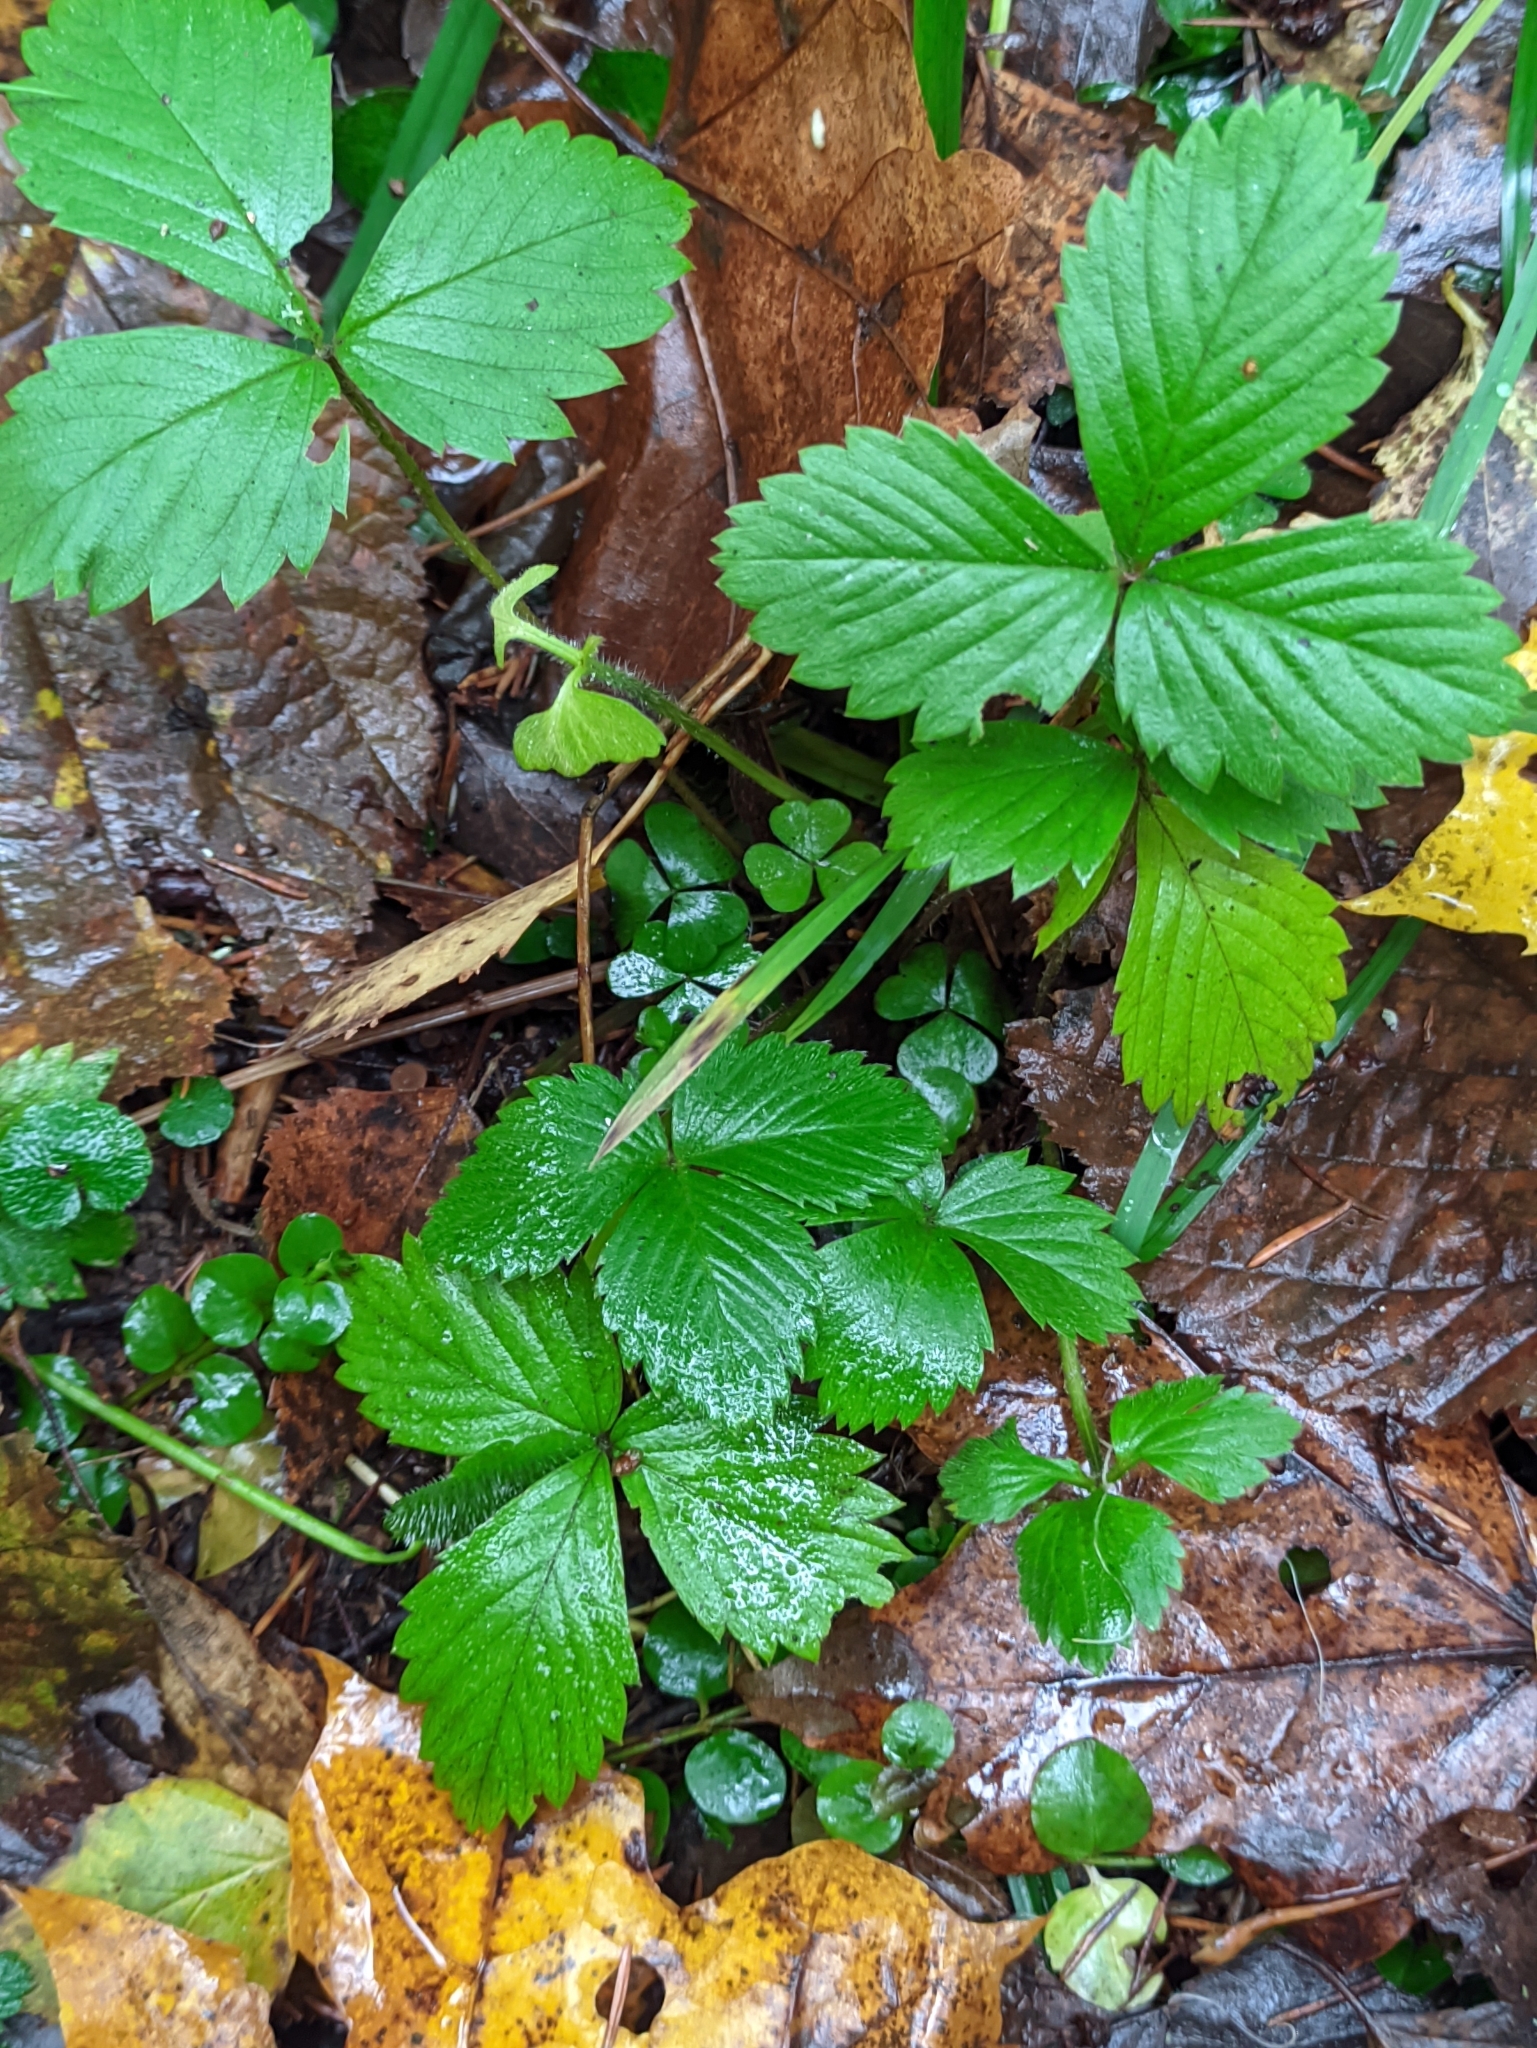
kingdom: Plantae
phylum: Tracheophyta
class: Magnoliopsida
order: Rosales
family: Rosaceae
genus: Fragaria
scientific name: Fragaria vesca
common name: Wild strawberry
